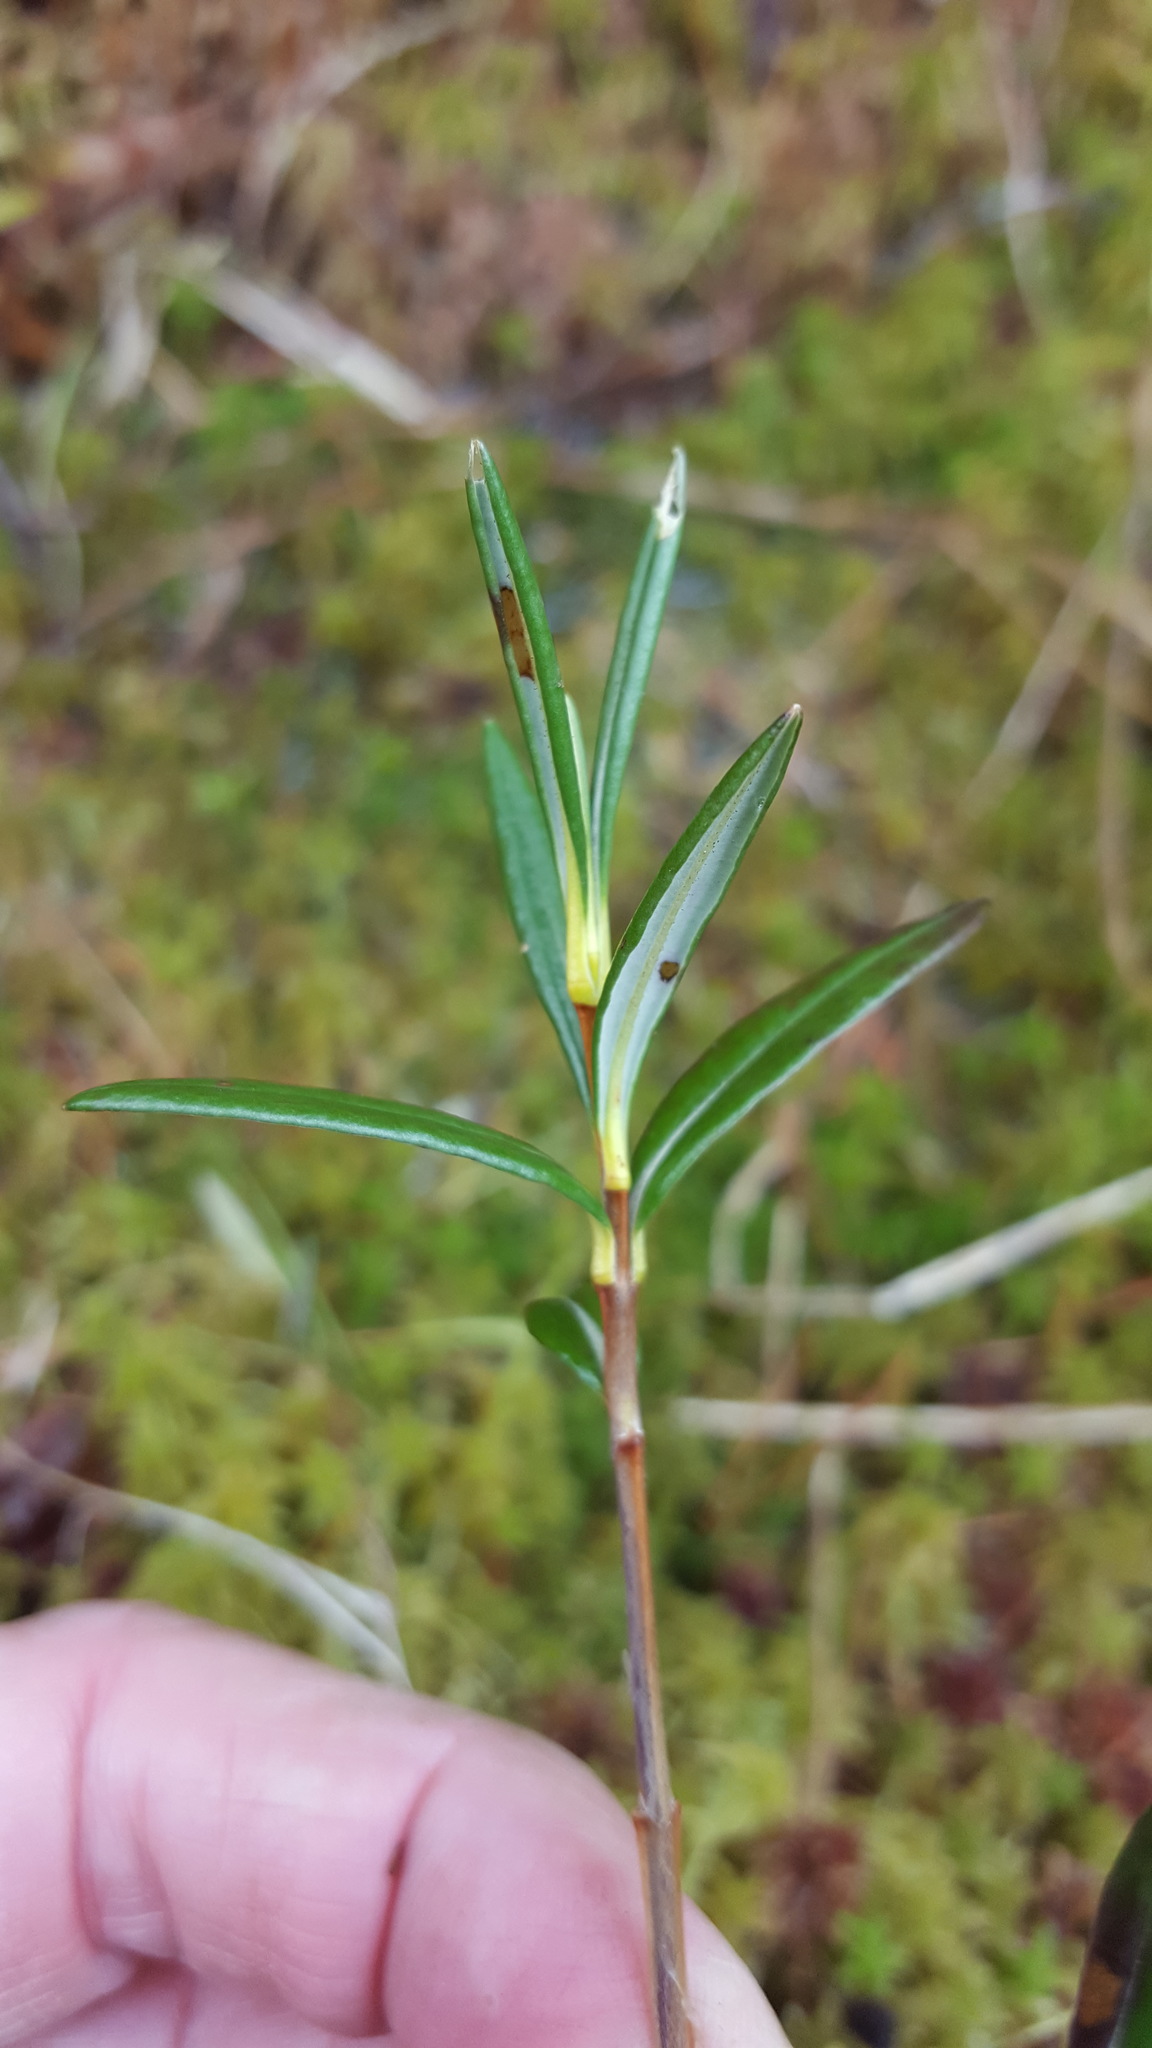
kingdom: Plantae
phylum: Tracheophyta
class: Magnoliopsida
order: Ericales
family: Ericaceae
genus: Kalmia
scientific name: Kalmia polifolia
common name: Bog-laurel
